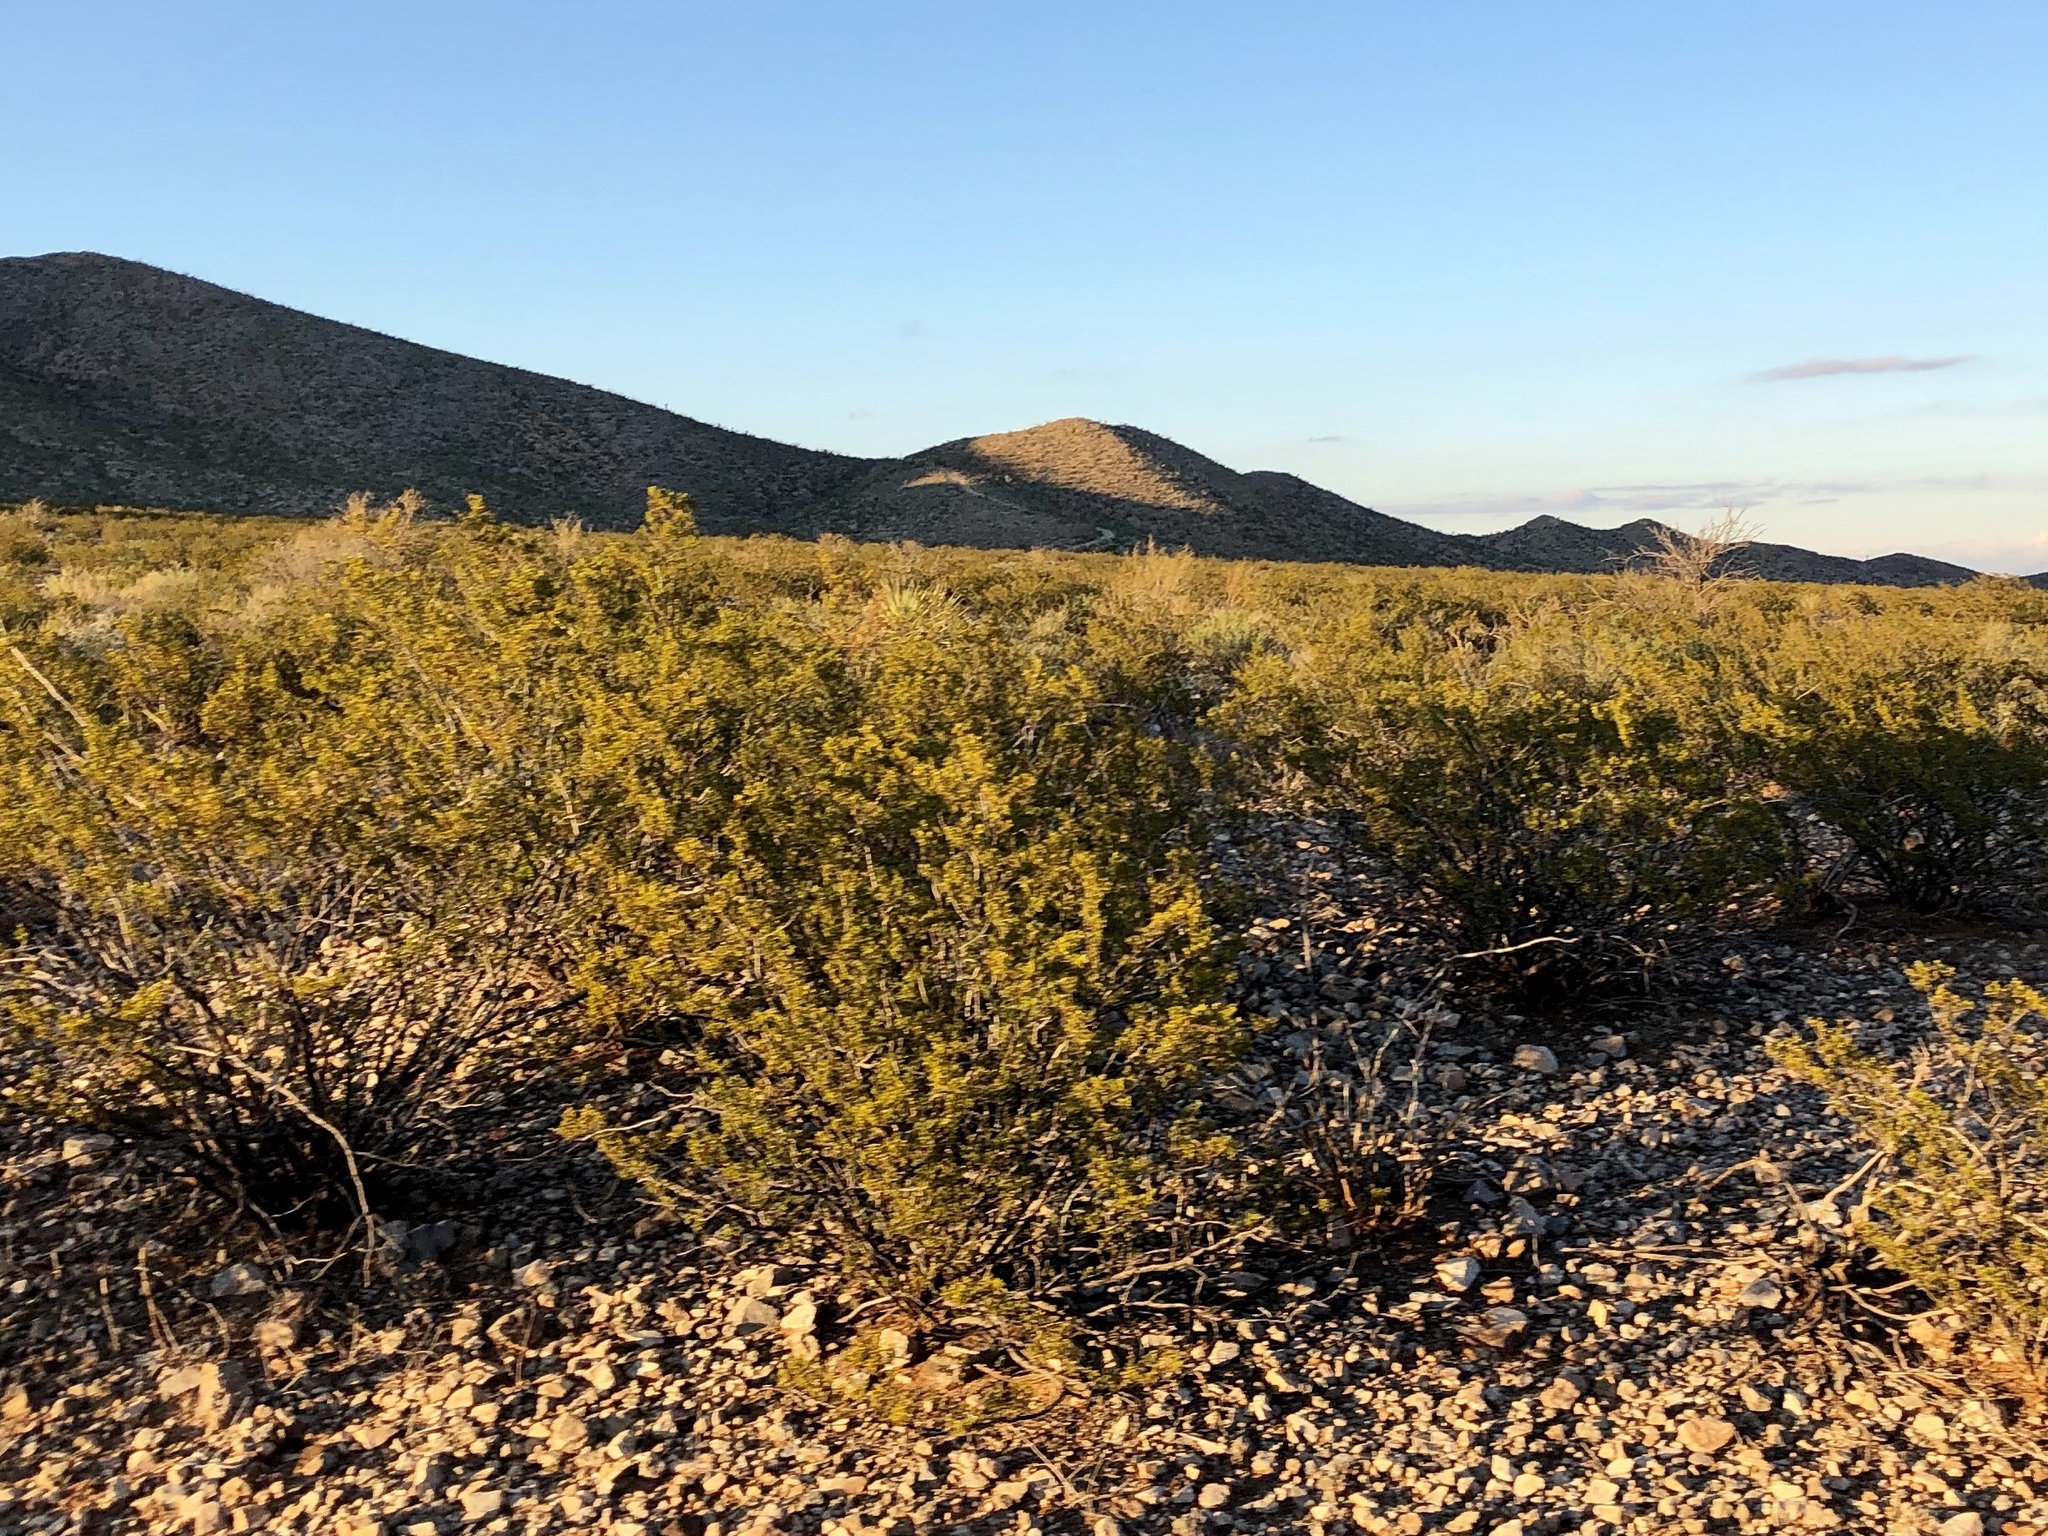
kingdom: Plantae
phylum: Tracheophyta
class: Magnoliopsida
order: Zygophyllales
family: Zygophyllaceae
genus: Larrea
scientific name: Larrea tridentata
